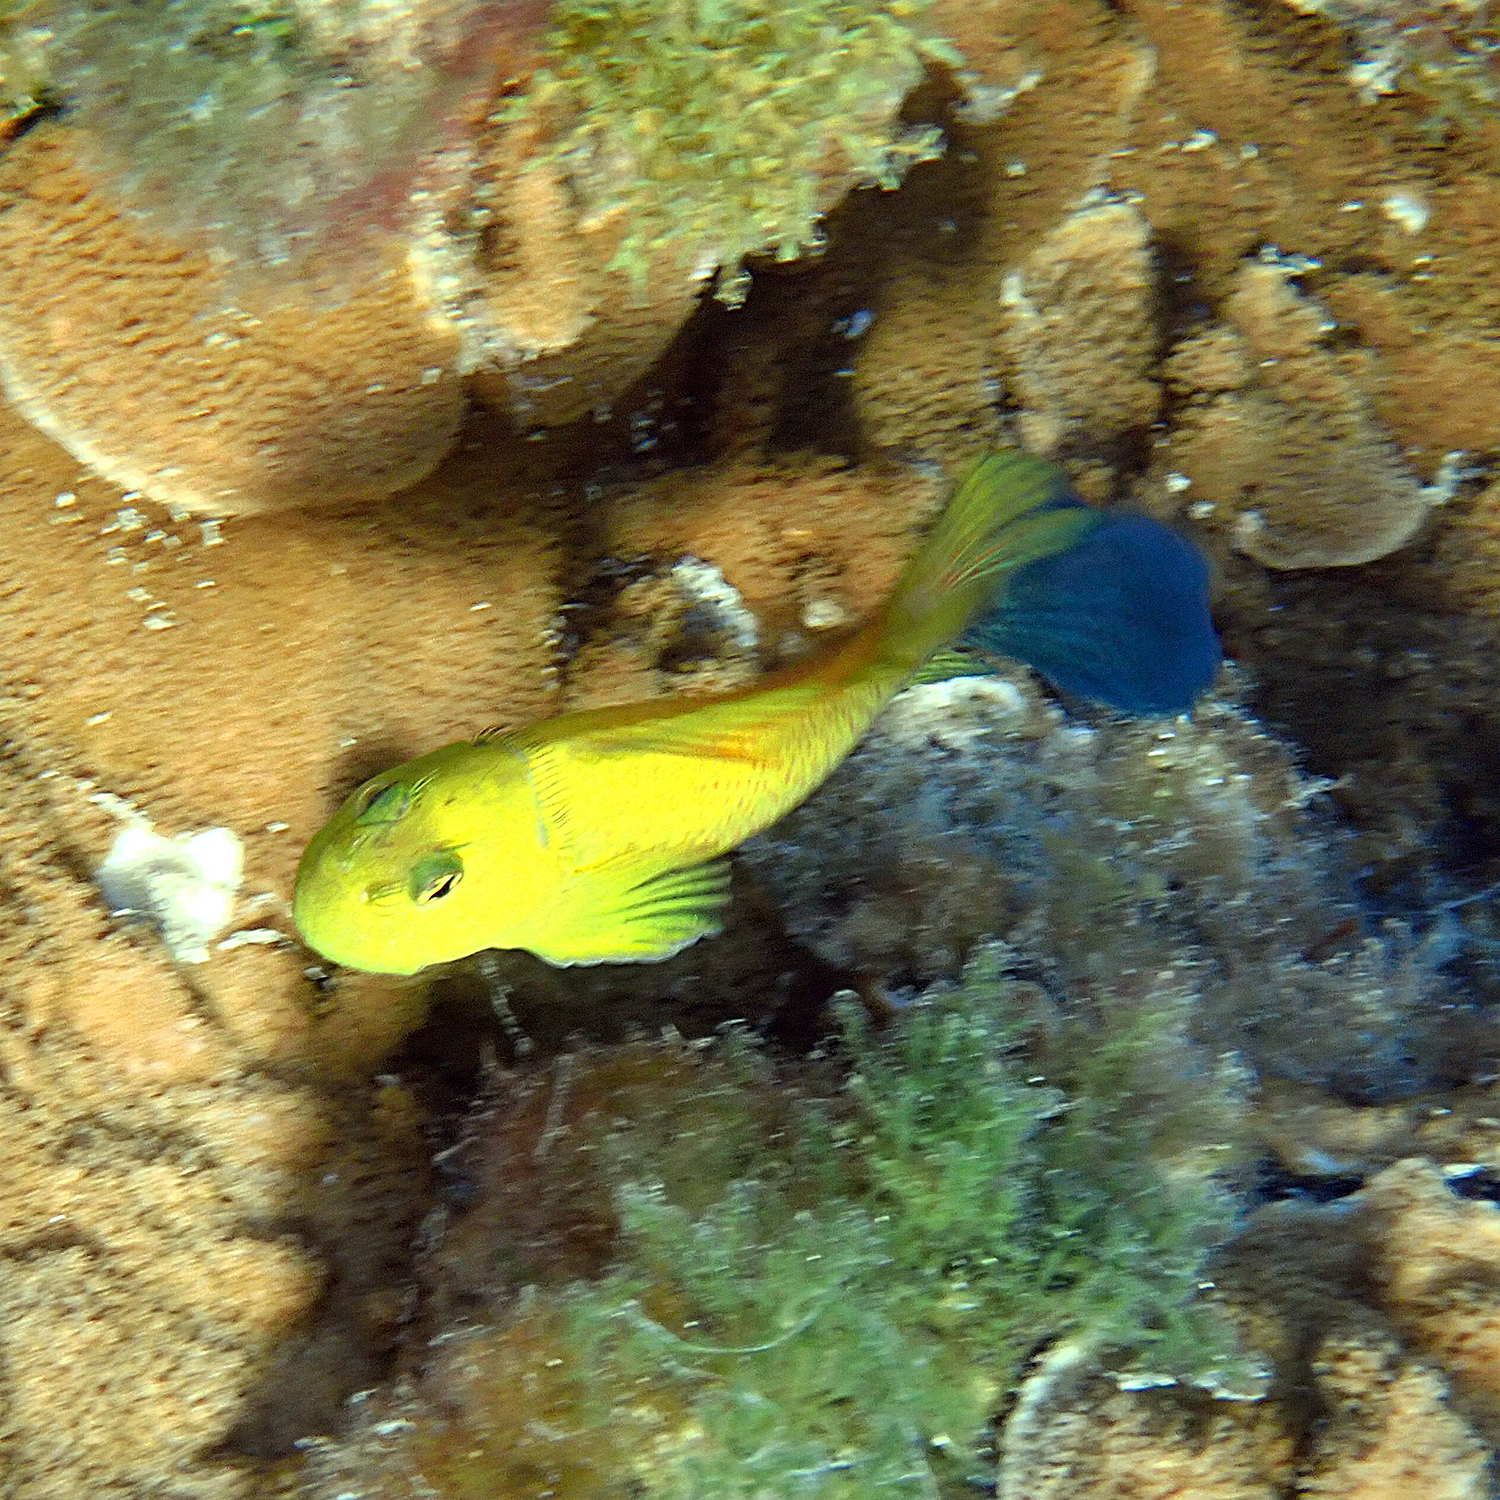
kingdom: Animalia
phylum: Chordata
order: Perciformes
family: Blenniidae
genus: Cirripectes
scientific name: Cirripectes chelomatus
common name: Lady musgrave blenny
